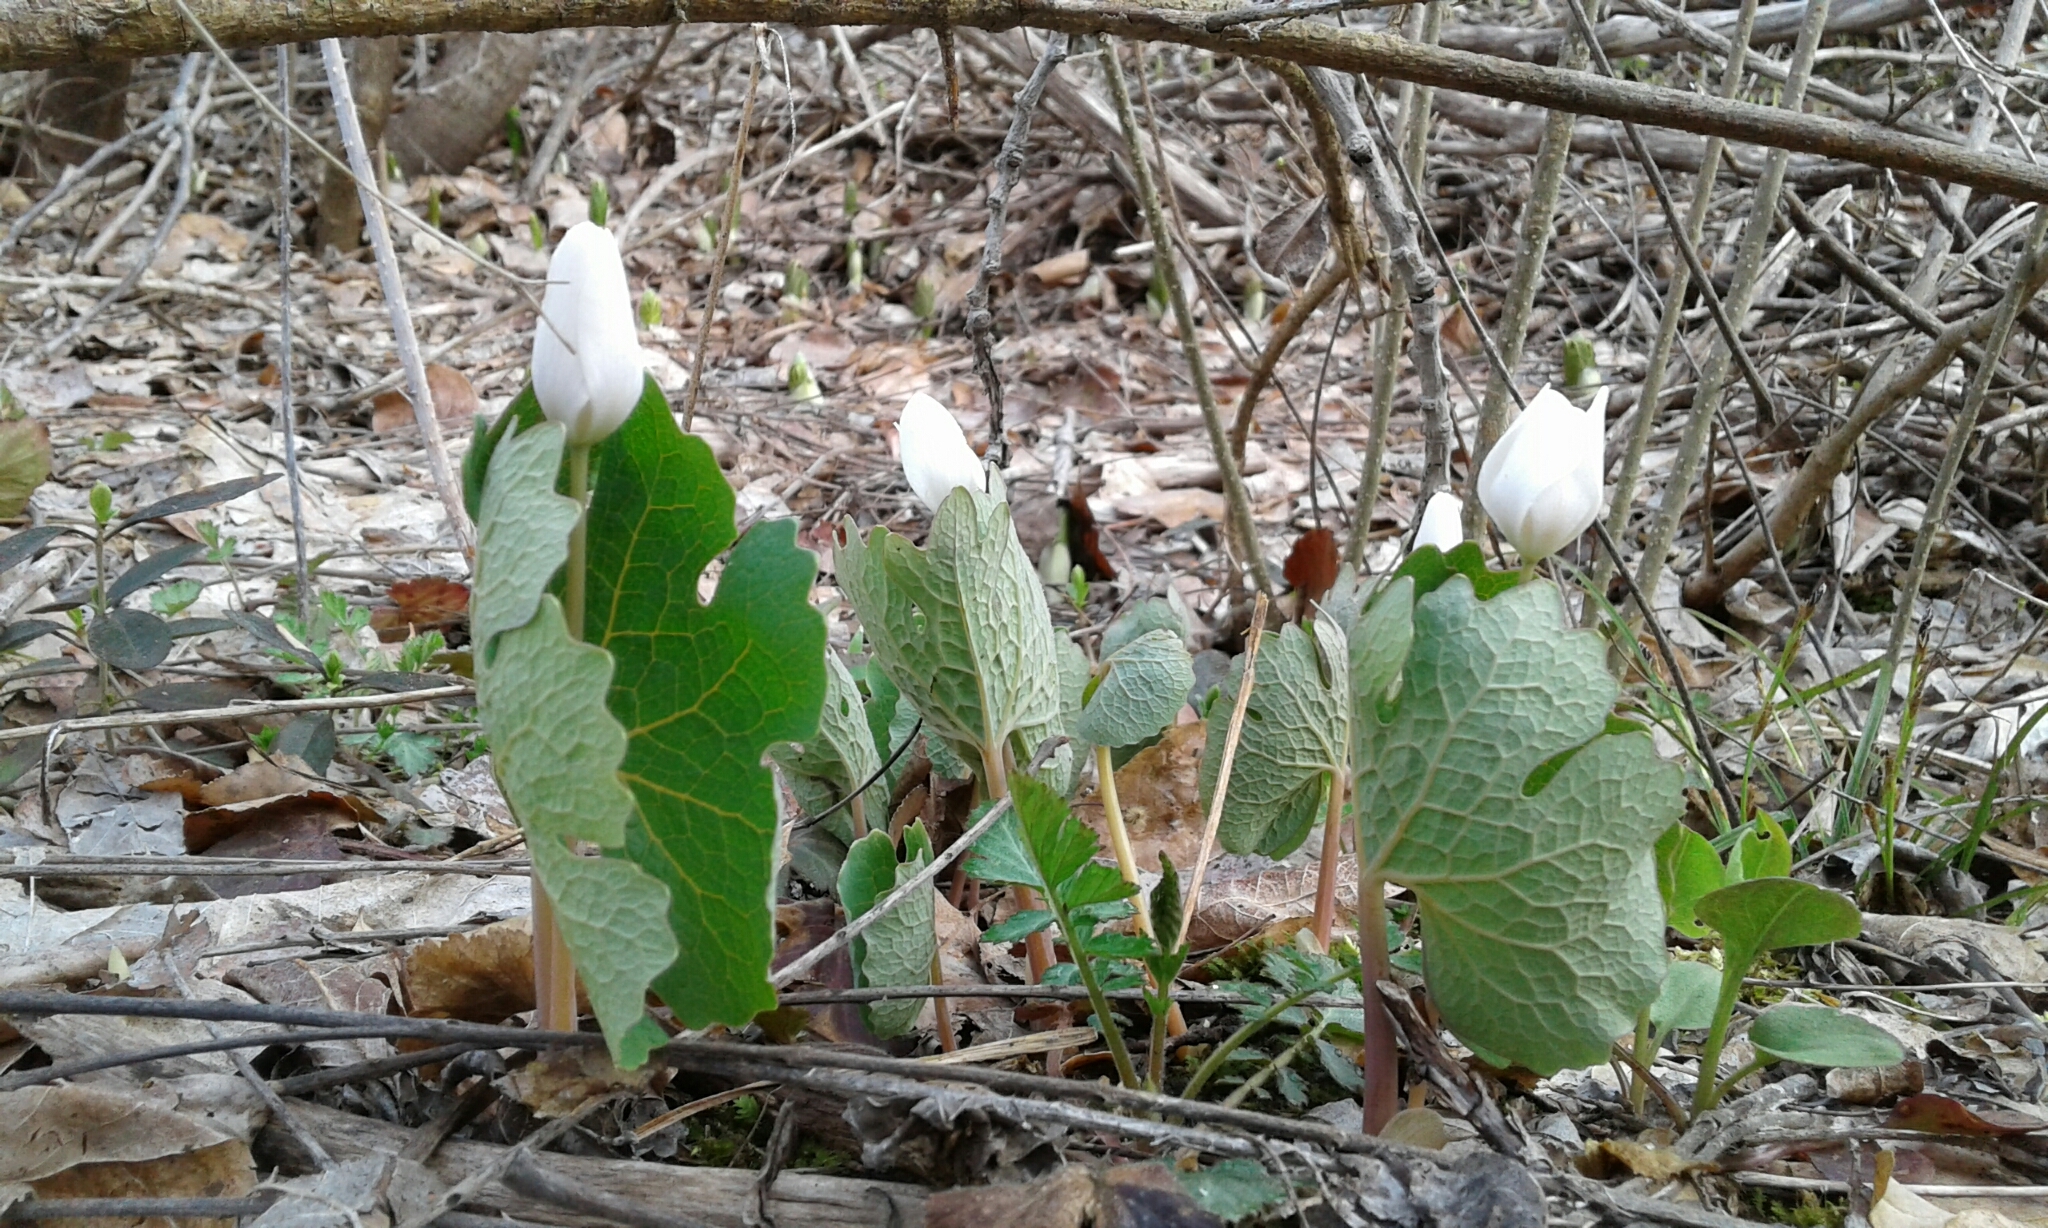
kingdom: Plantae
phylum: Tracheophyta
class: Magnoliopsida
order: Ranunculales
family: Papaveraceae
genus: Sanguinaria
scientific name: Sanguinaria canadensis
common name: Bloodroot
